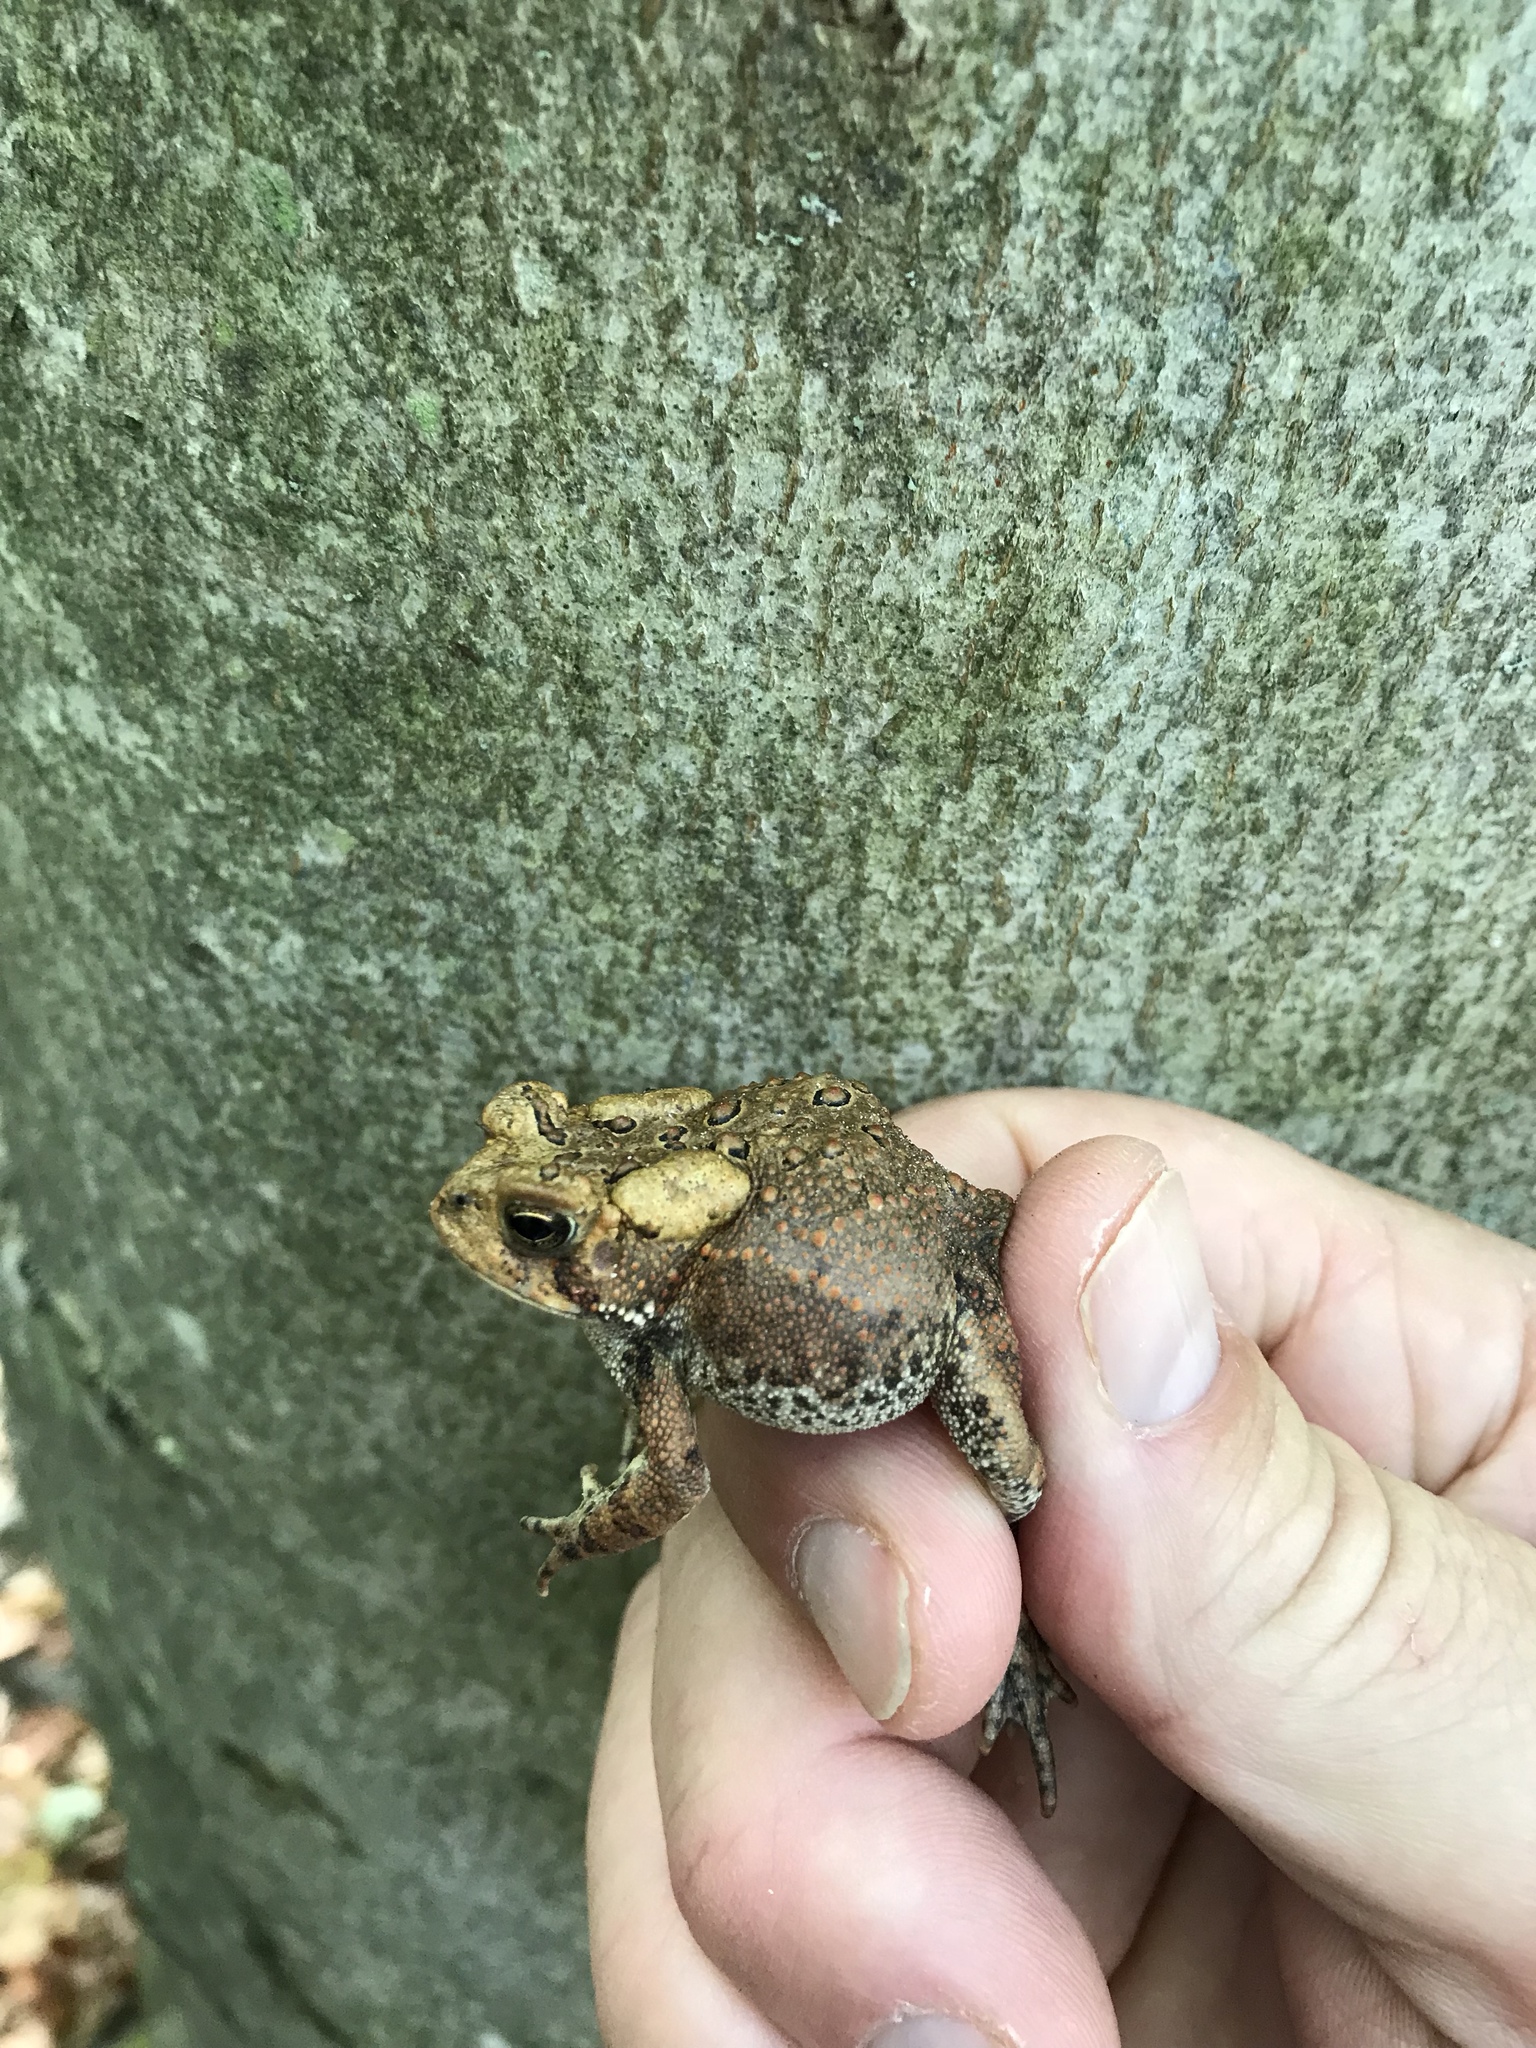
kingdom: Animalia
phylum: Chordata
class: Amphibia
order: Anura
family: Bufonidae
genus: Anaxyrus
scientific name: Anaxyrus americanus
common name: American toad
